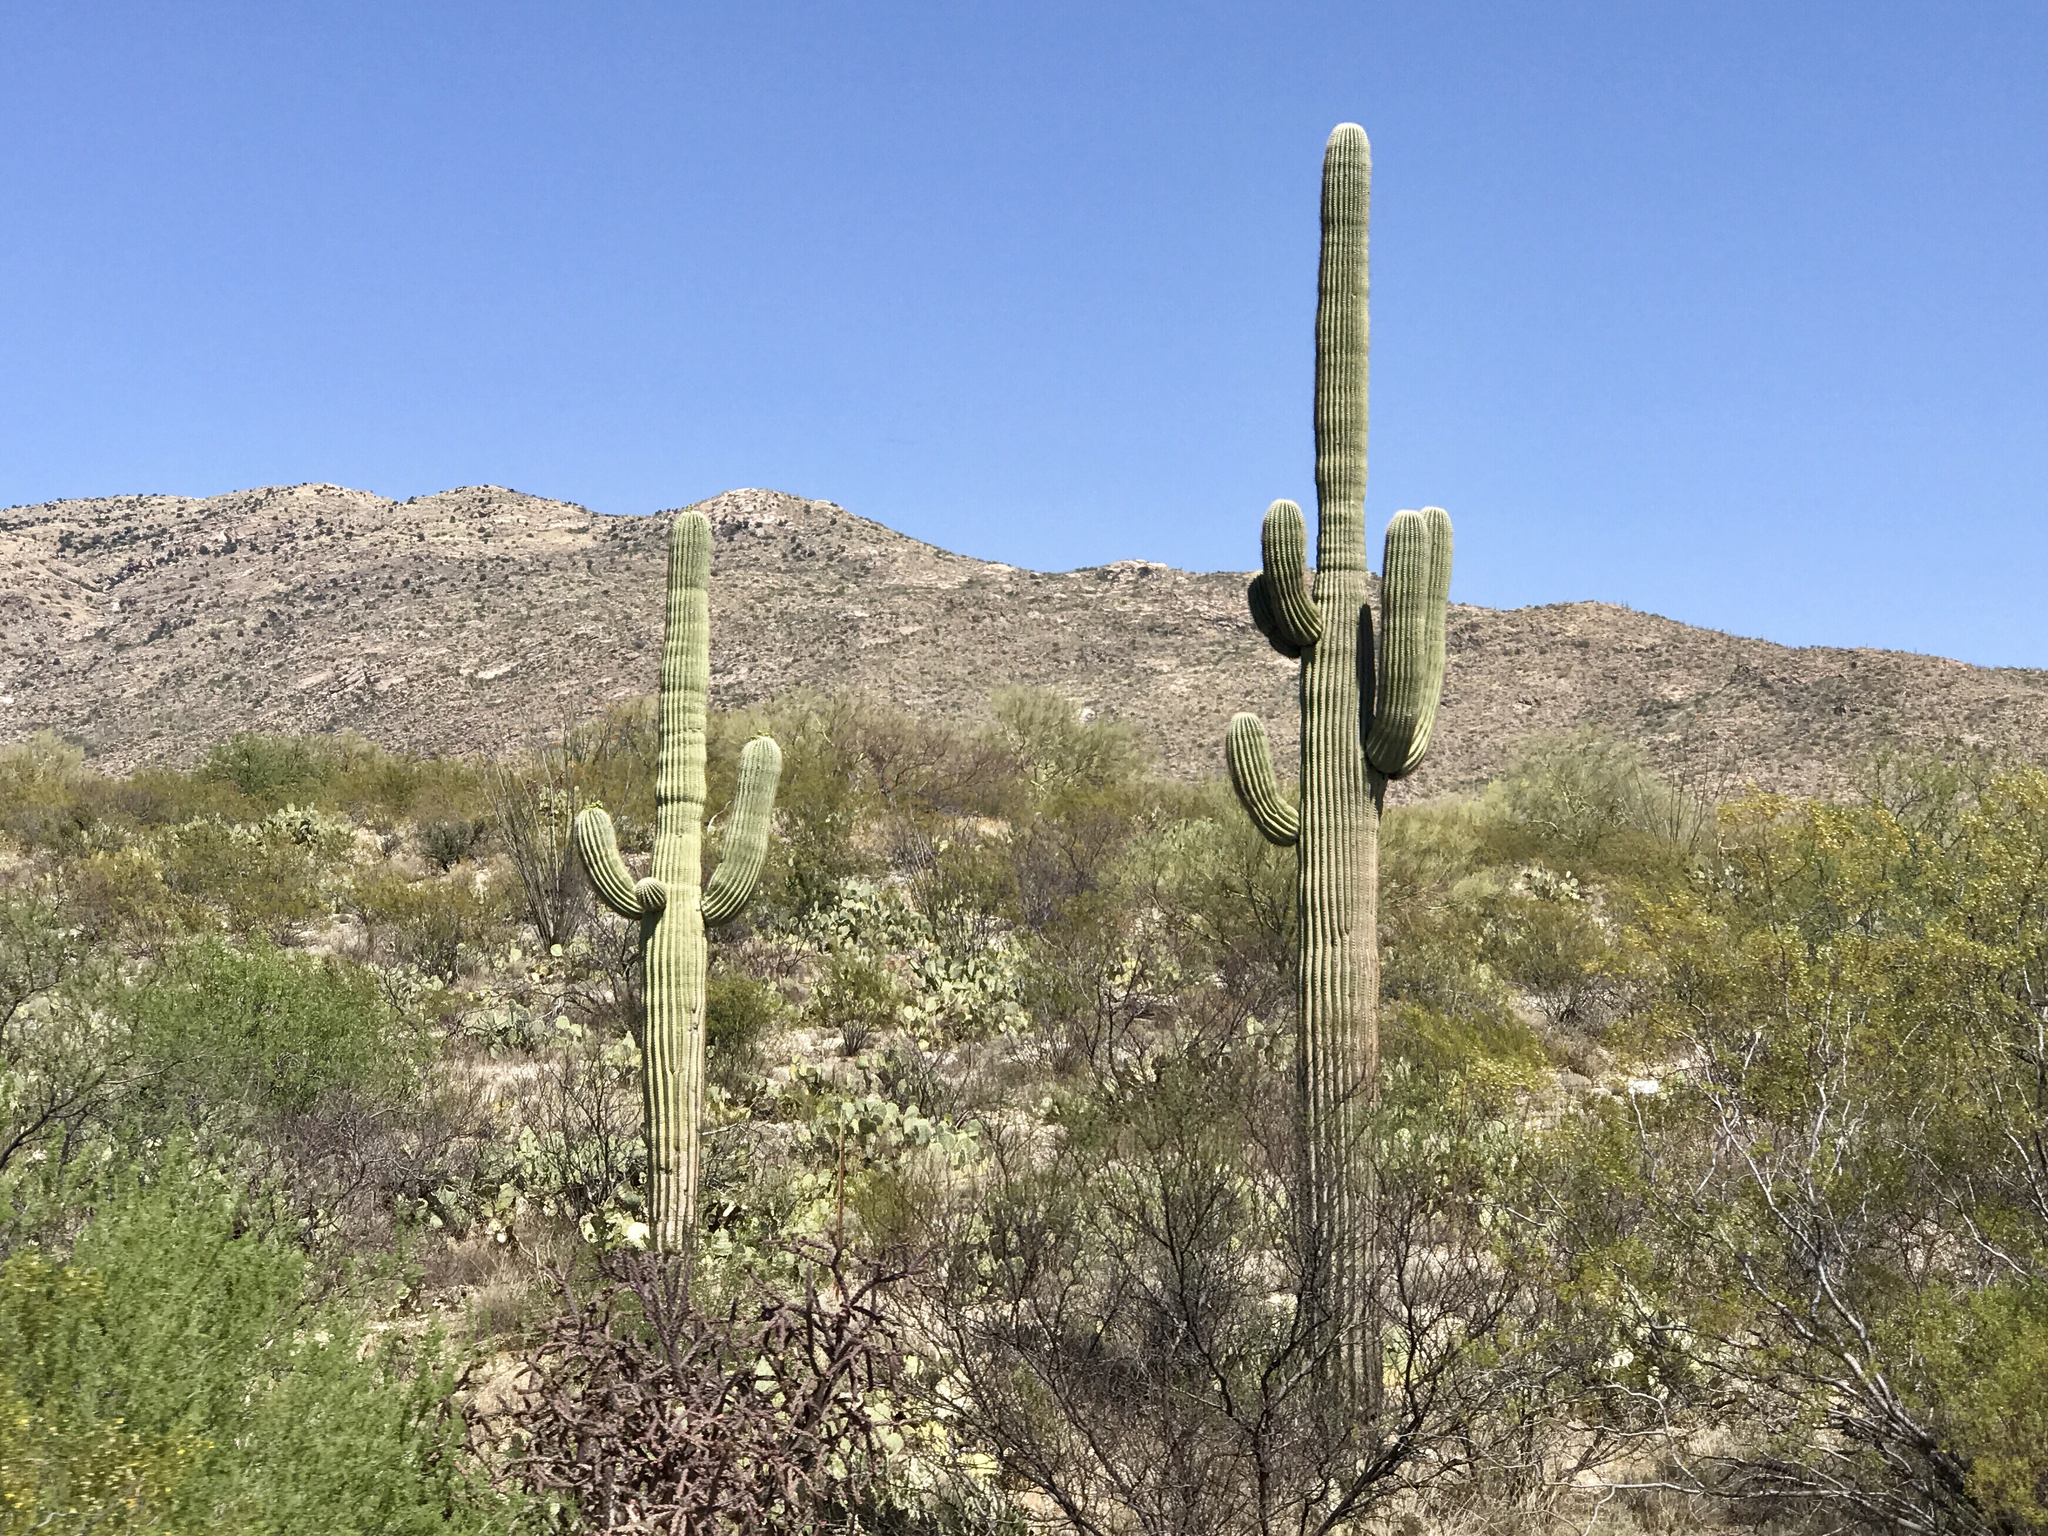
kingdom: Plantae
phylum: Tracheophyta
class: Magnoliopsida
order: Caryophyllales
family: Cactaceae
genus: Carnegiea
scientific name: Carnegiea gigantea
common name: Saguaro
